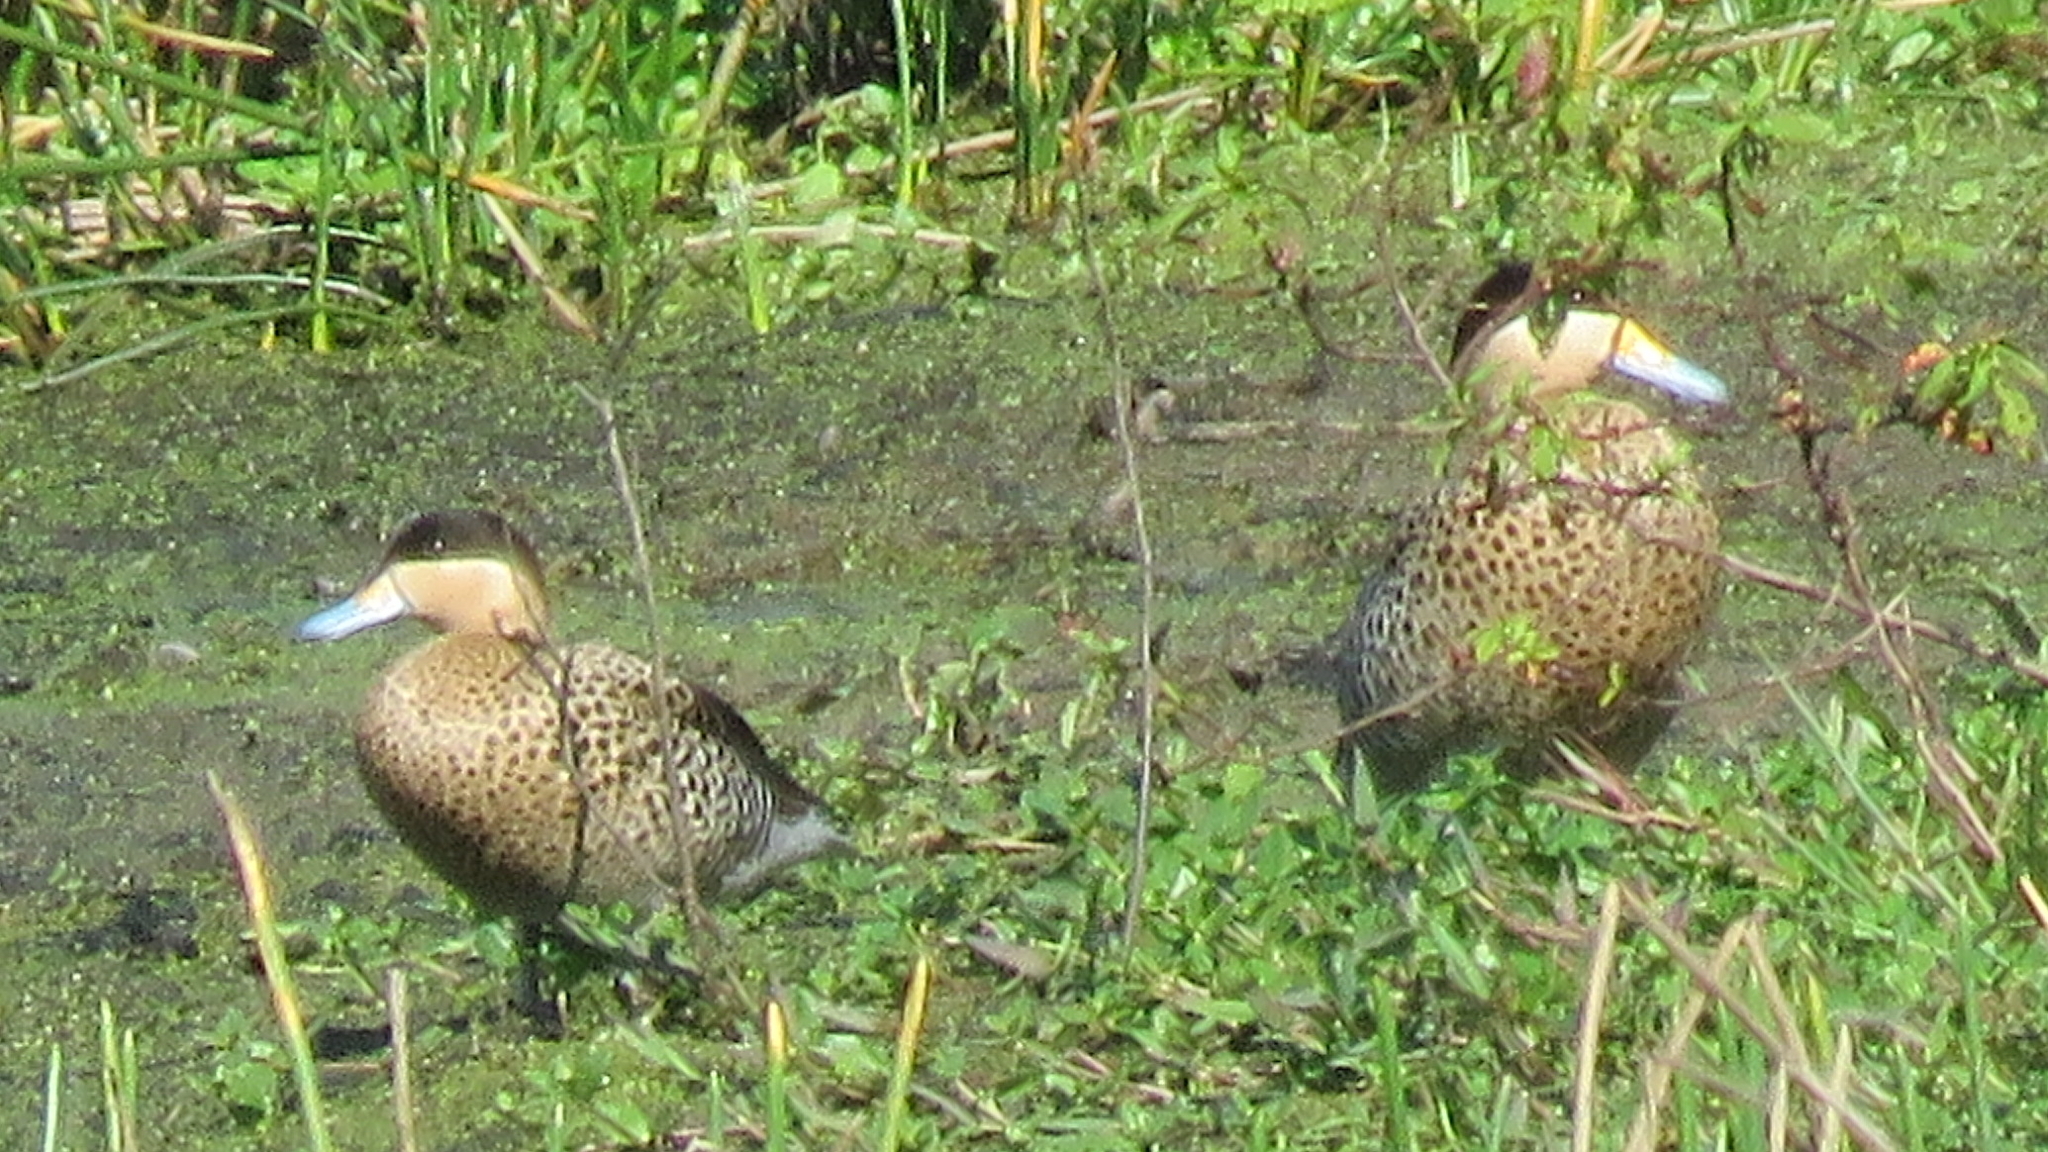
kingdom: Animalia
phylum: Chordata
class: Aves
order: Anseriformes
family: Anatidae
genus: Spatula
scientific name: Spatula versicolor
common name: Silver teal
